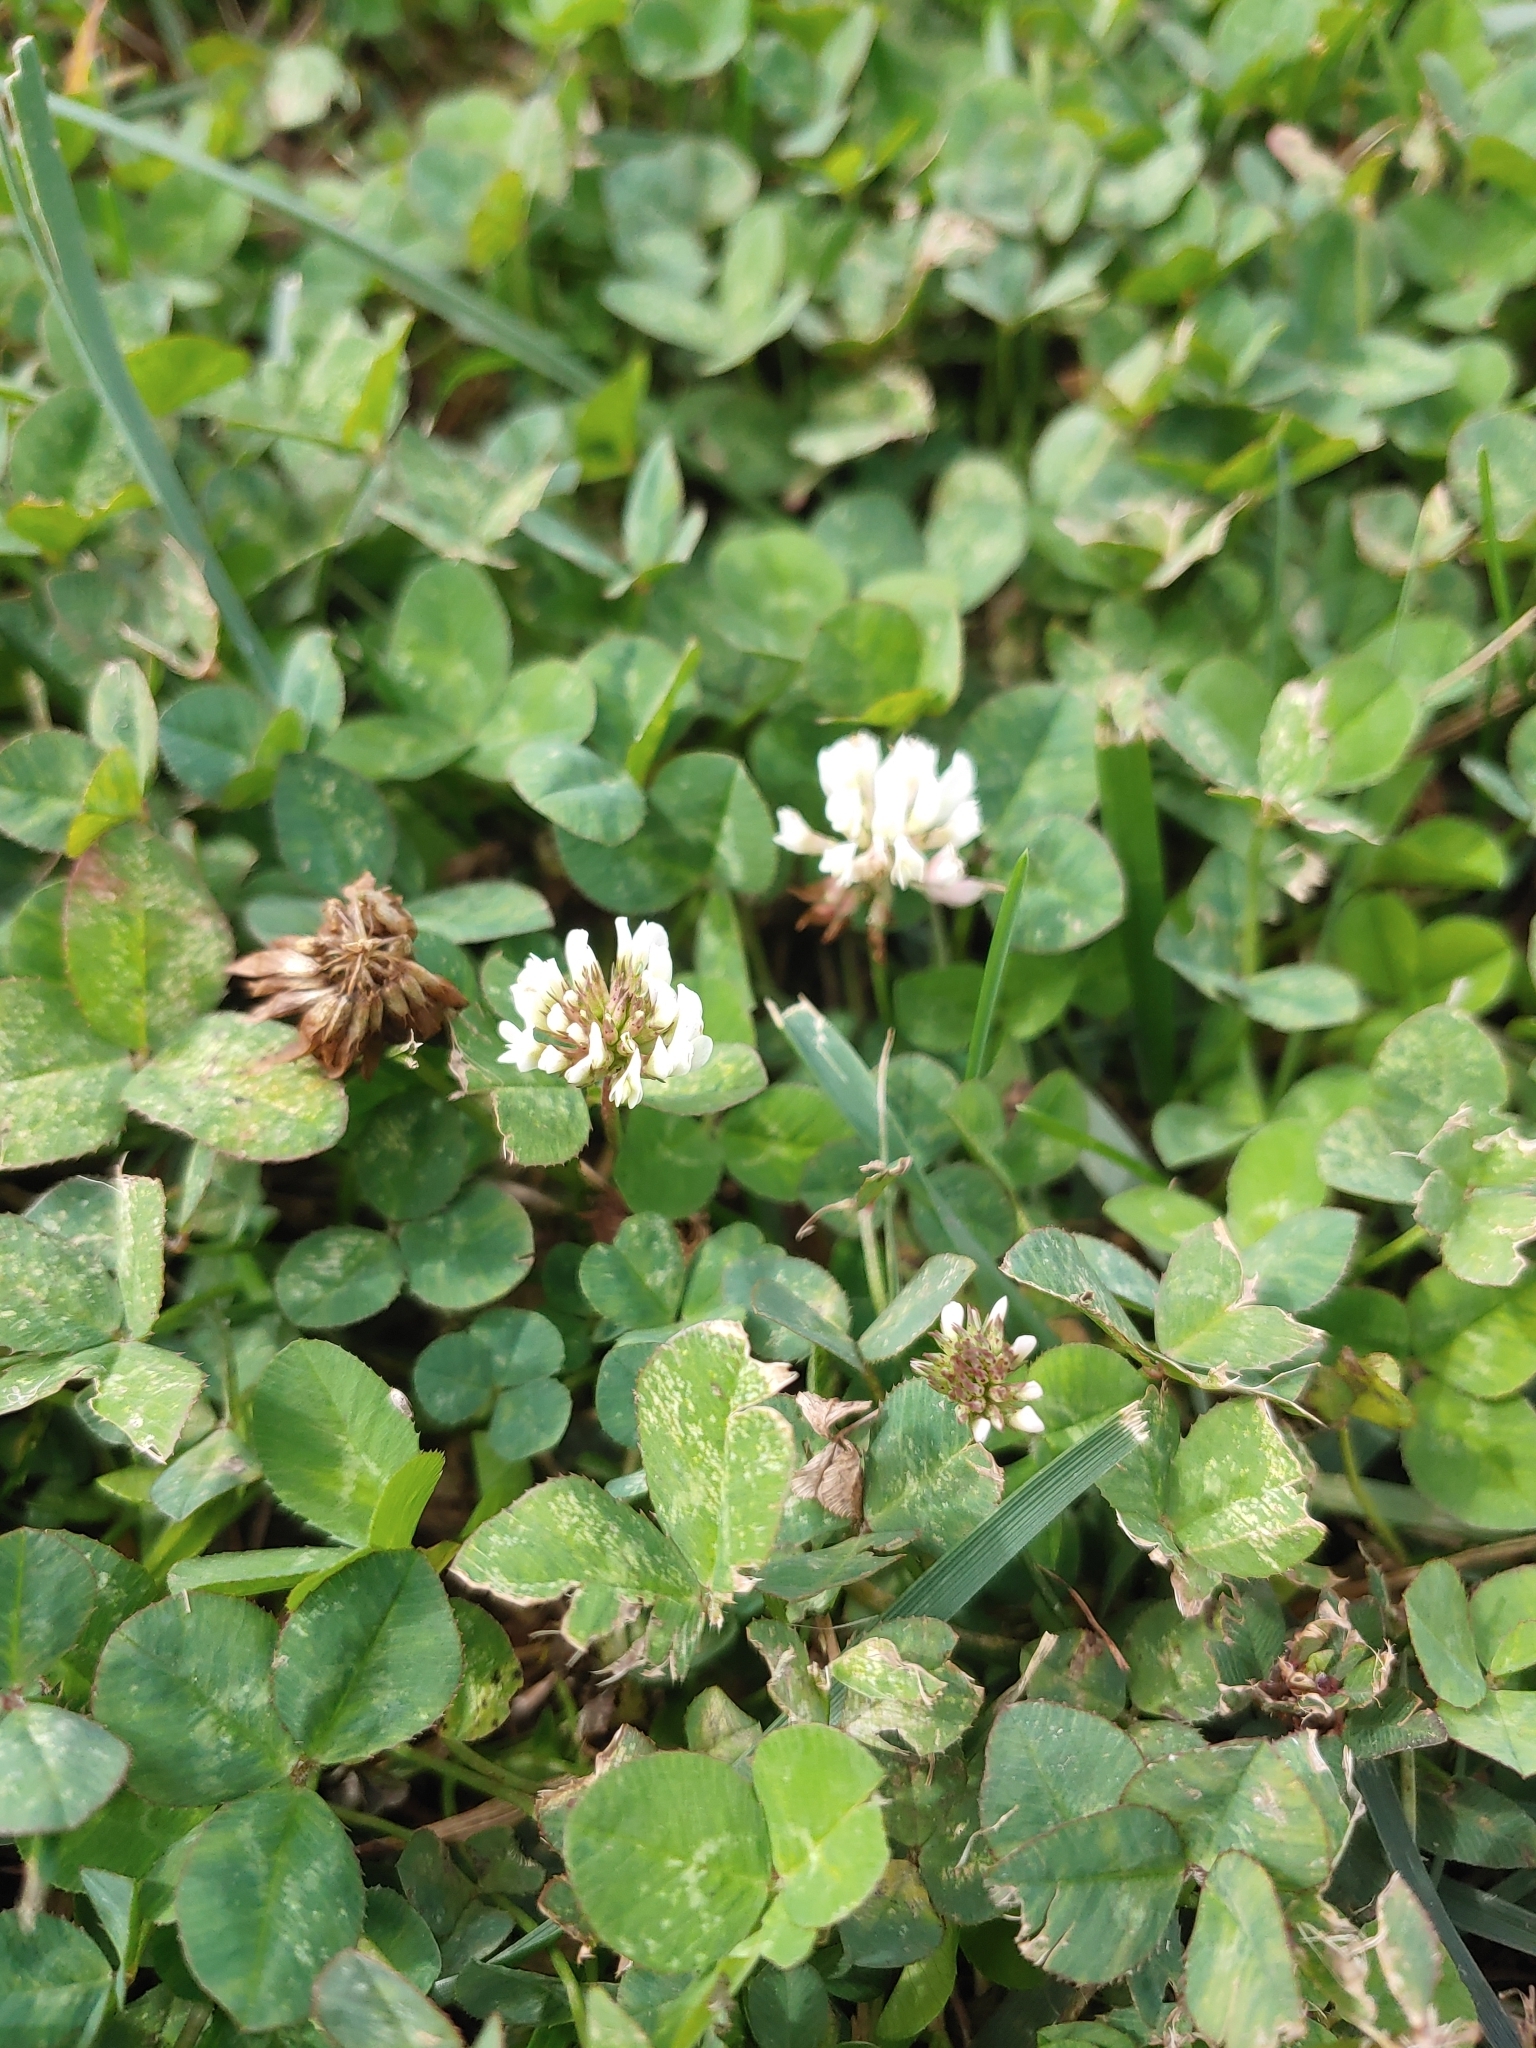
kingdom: Plantae
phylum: Tracheophyta
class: Magnoliopsida
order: Fabales
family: Fabaceae
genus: Trifolium
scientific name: Trifolium repens
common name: White clover
